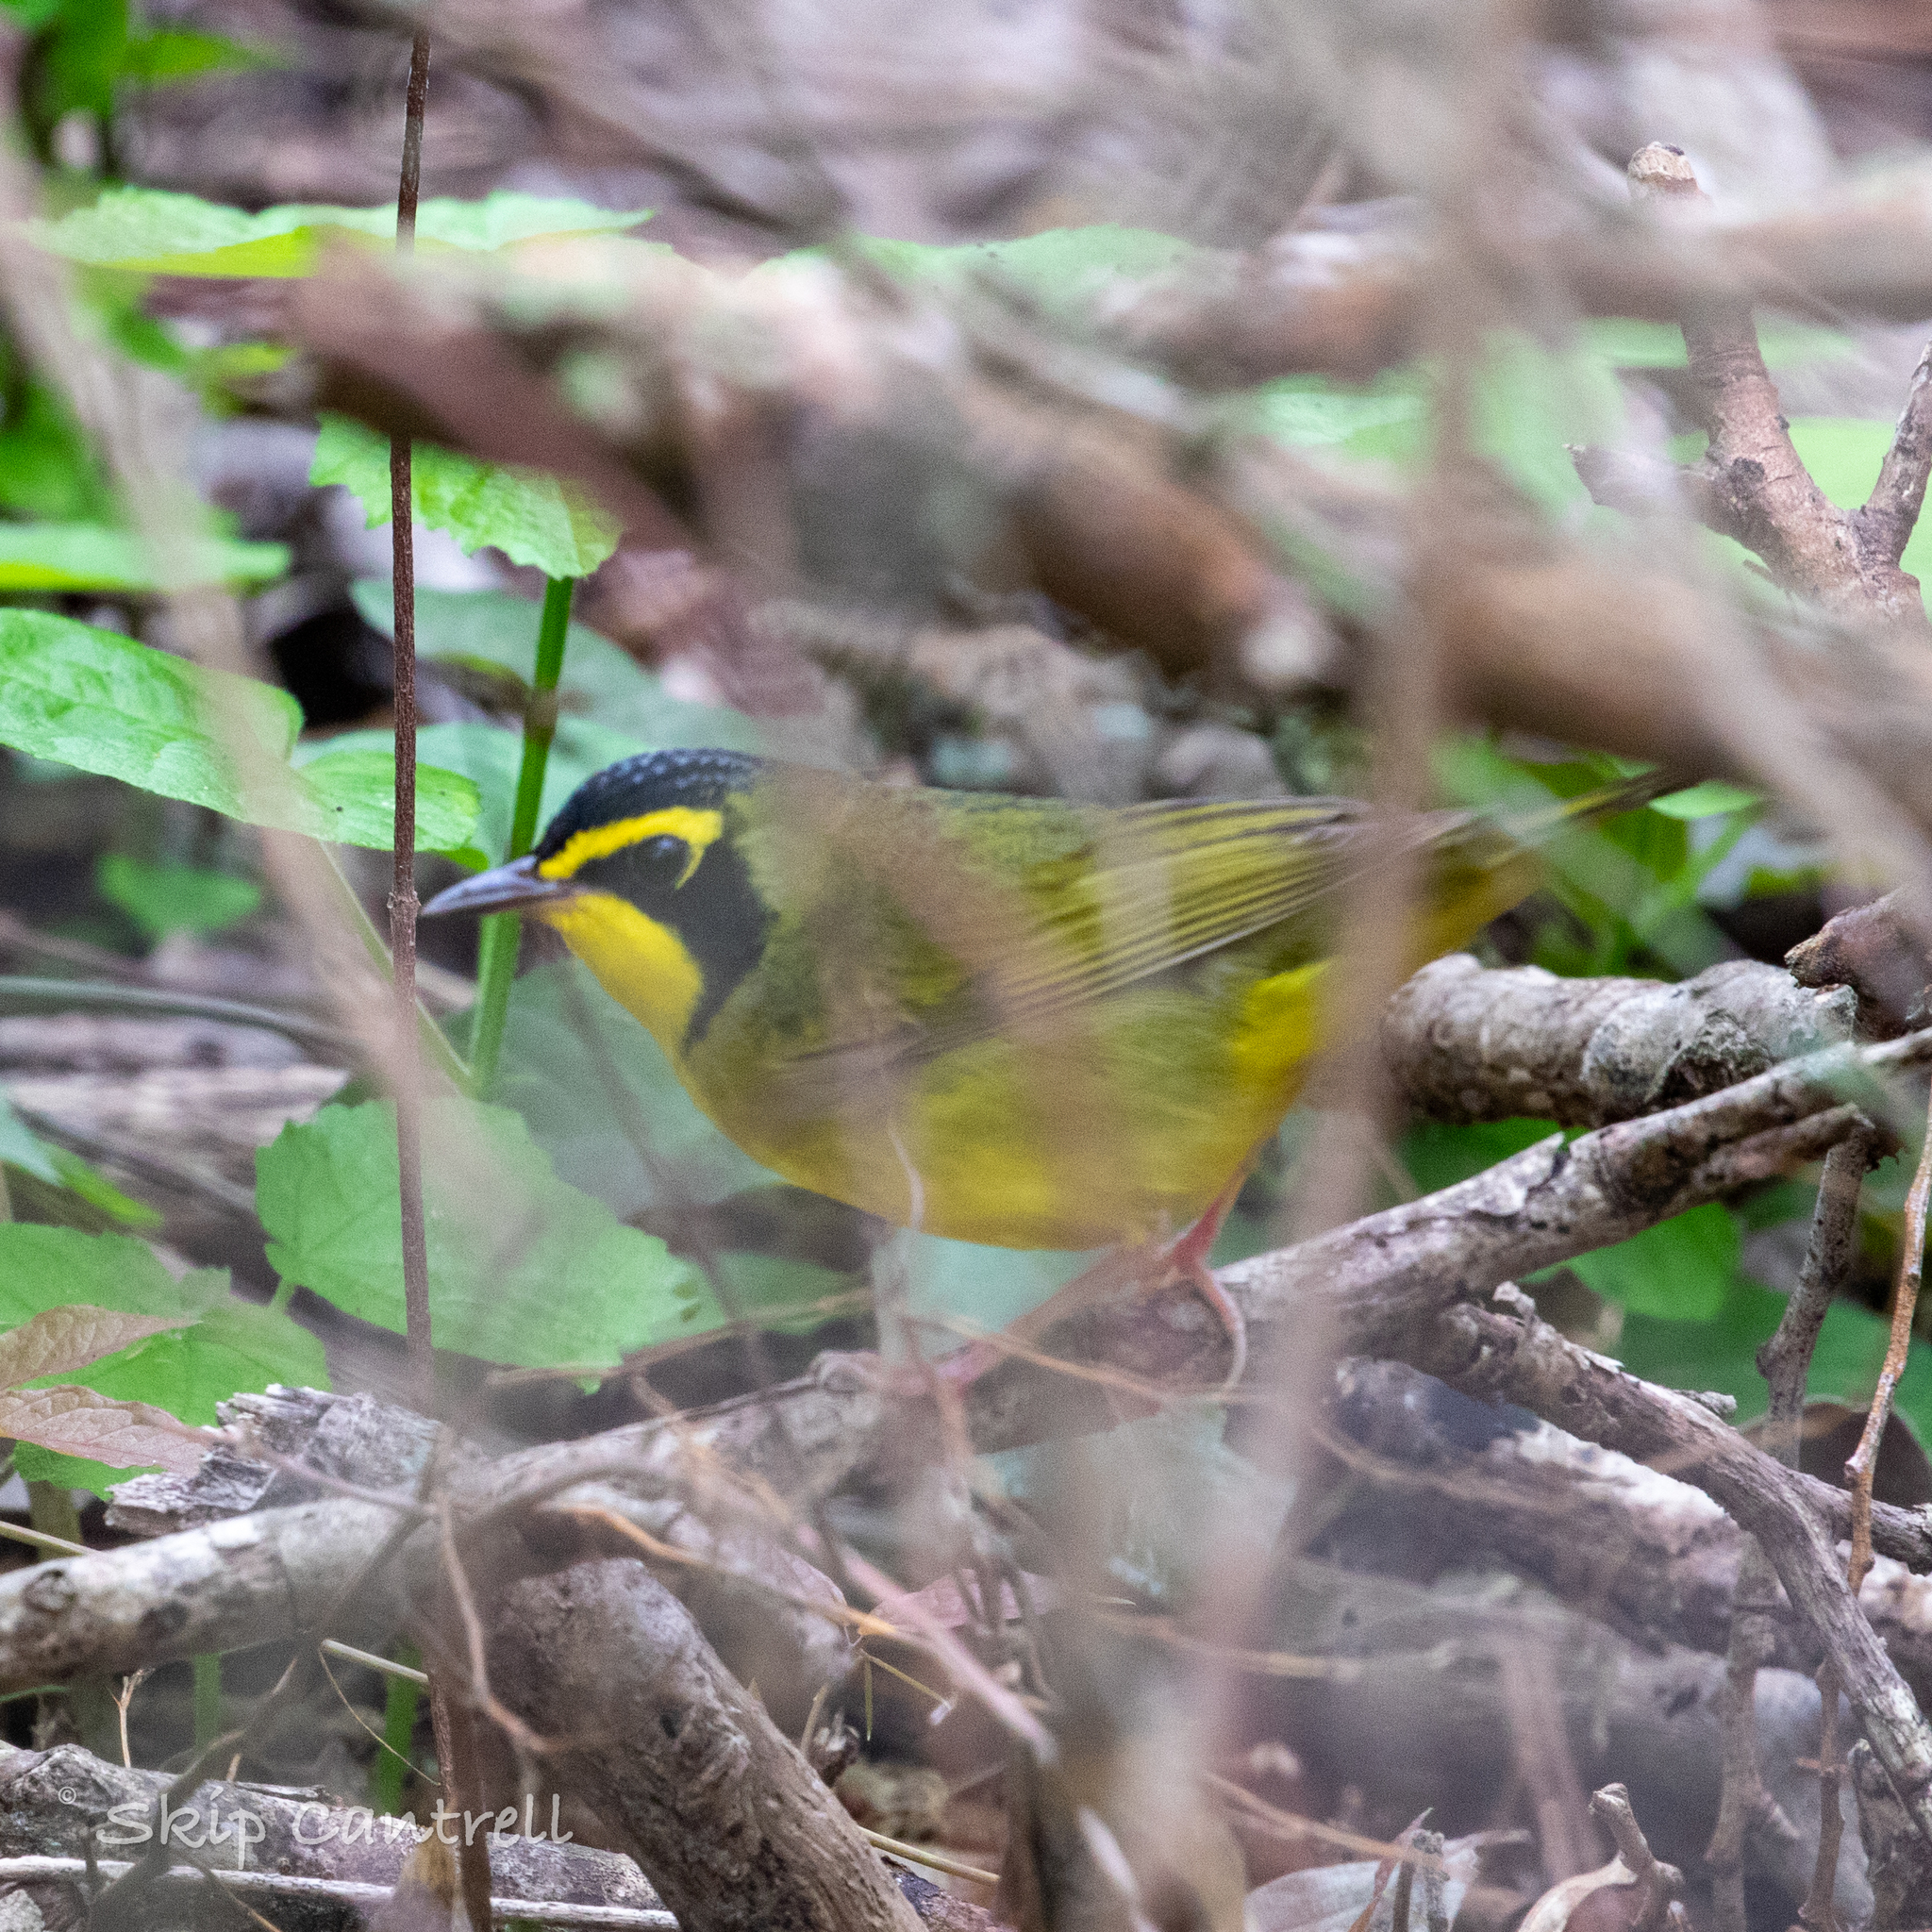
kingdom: Animalia
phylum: Chordata
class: Aves
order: Passeriformes
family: Parulidae
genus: Geothlypis
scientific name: Geothlypis formosa
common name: Kentucky warbler
